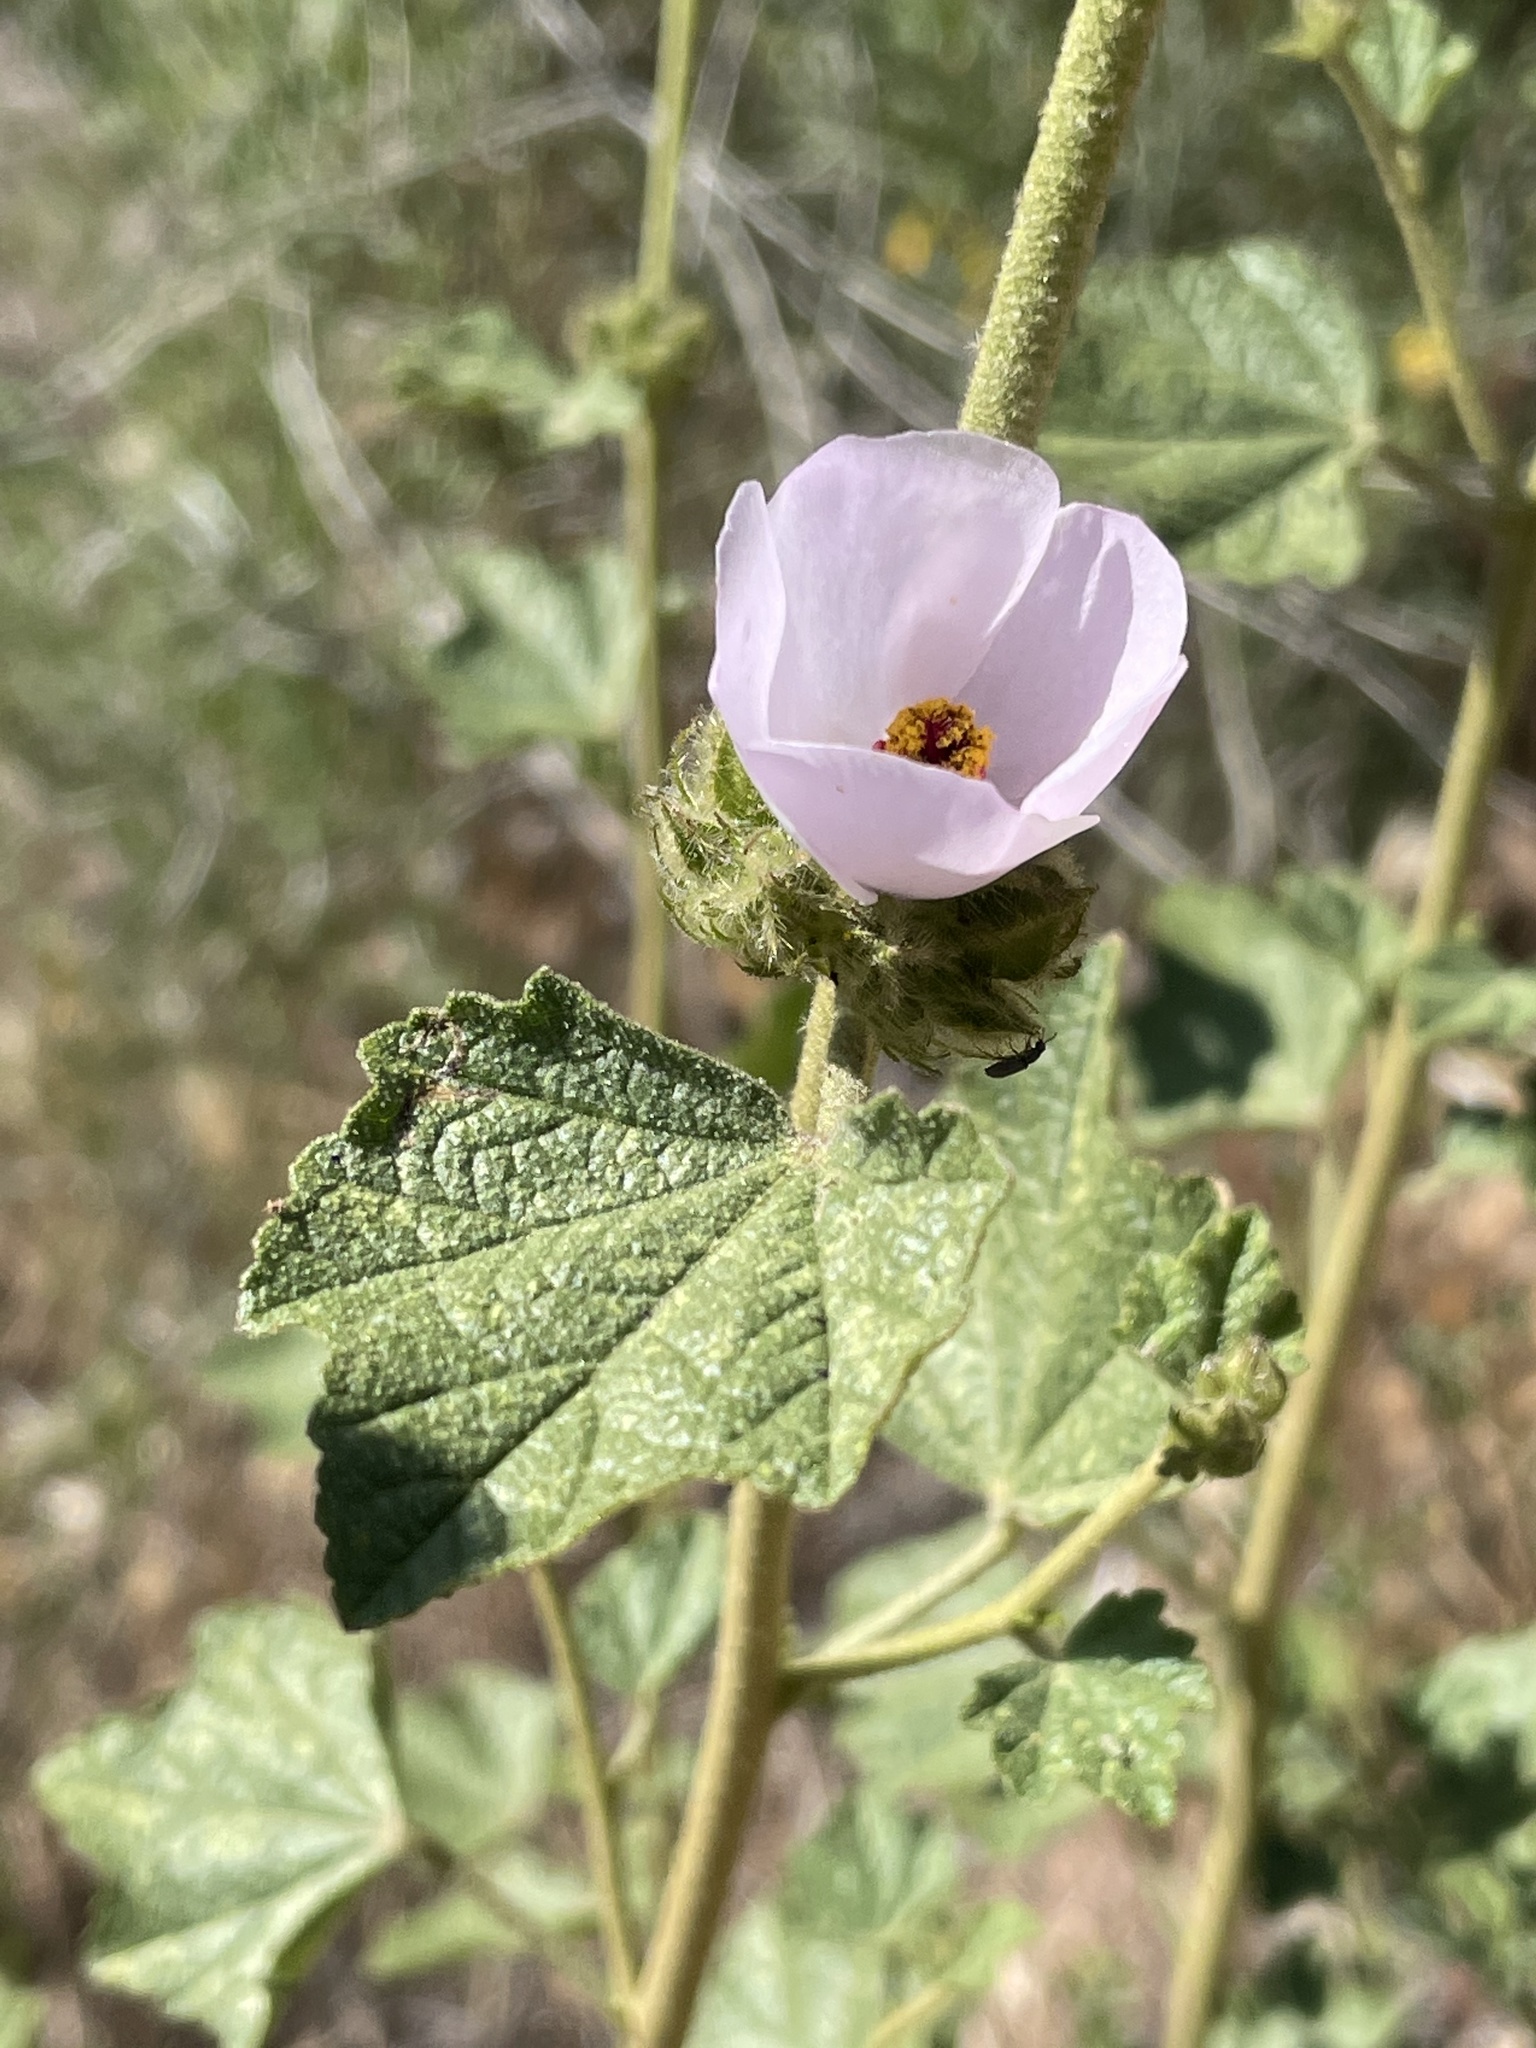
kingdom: Plantae
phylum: Tracheophyta
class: Magnoliopsida
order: Malvales
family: Malvaceae
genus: Malacothamnus
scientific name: Malacothamnus densiflorus
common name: Yellow-stem bush-mallow
